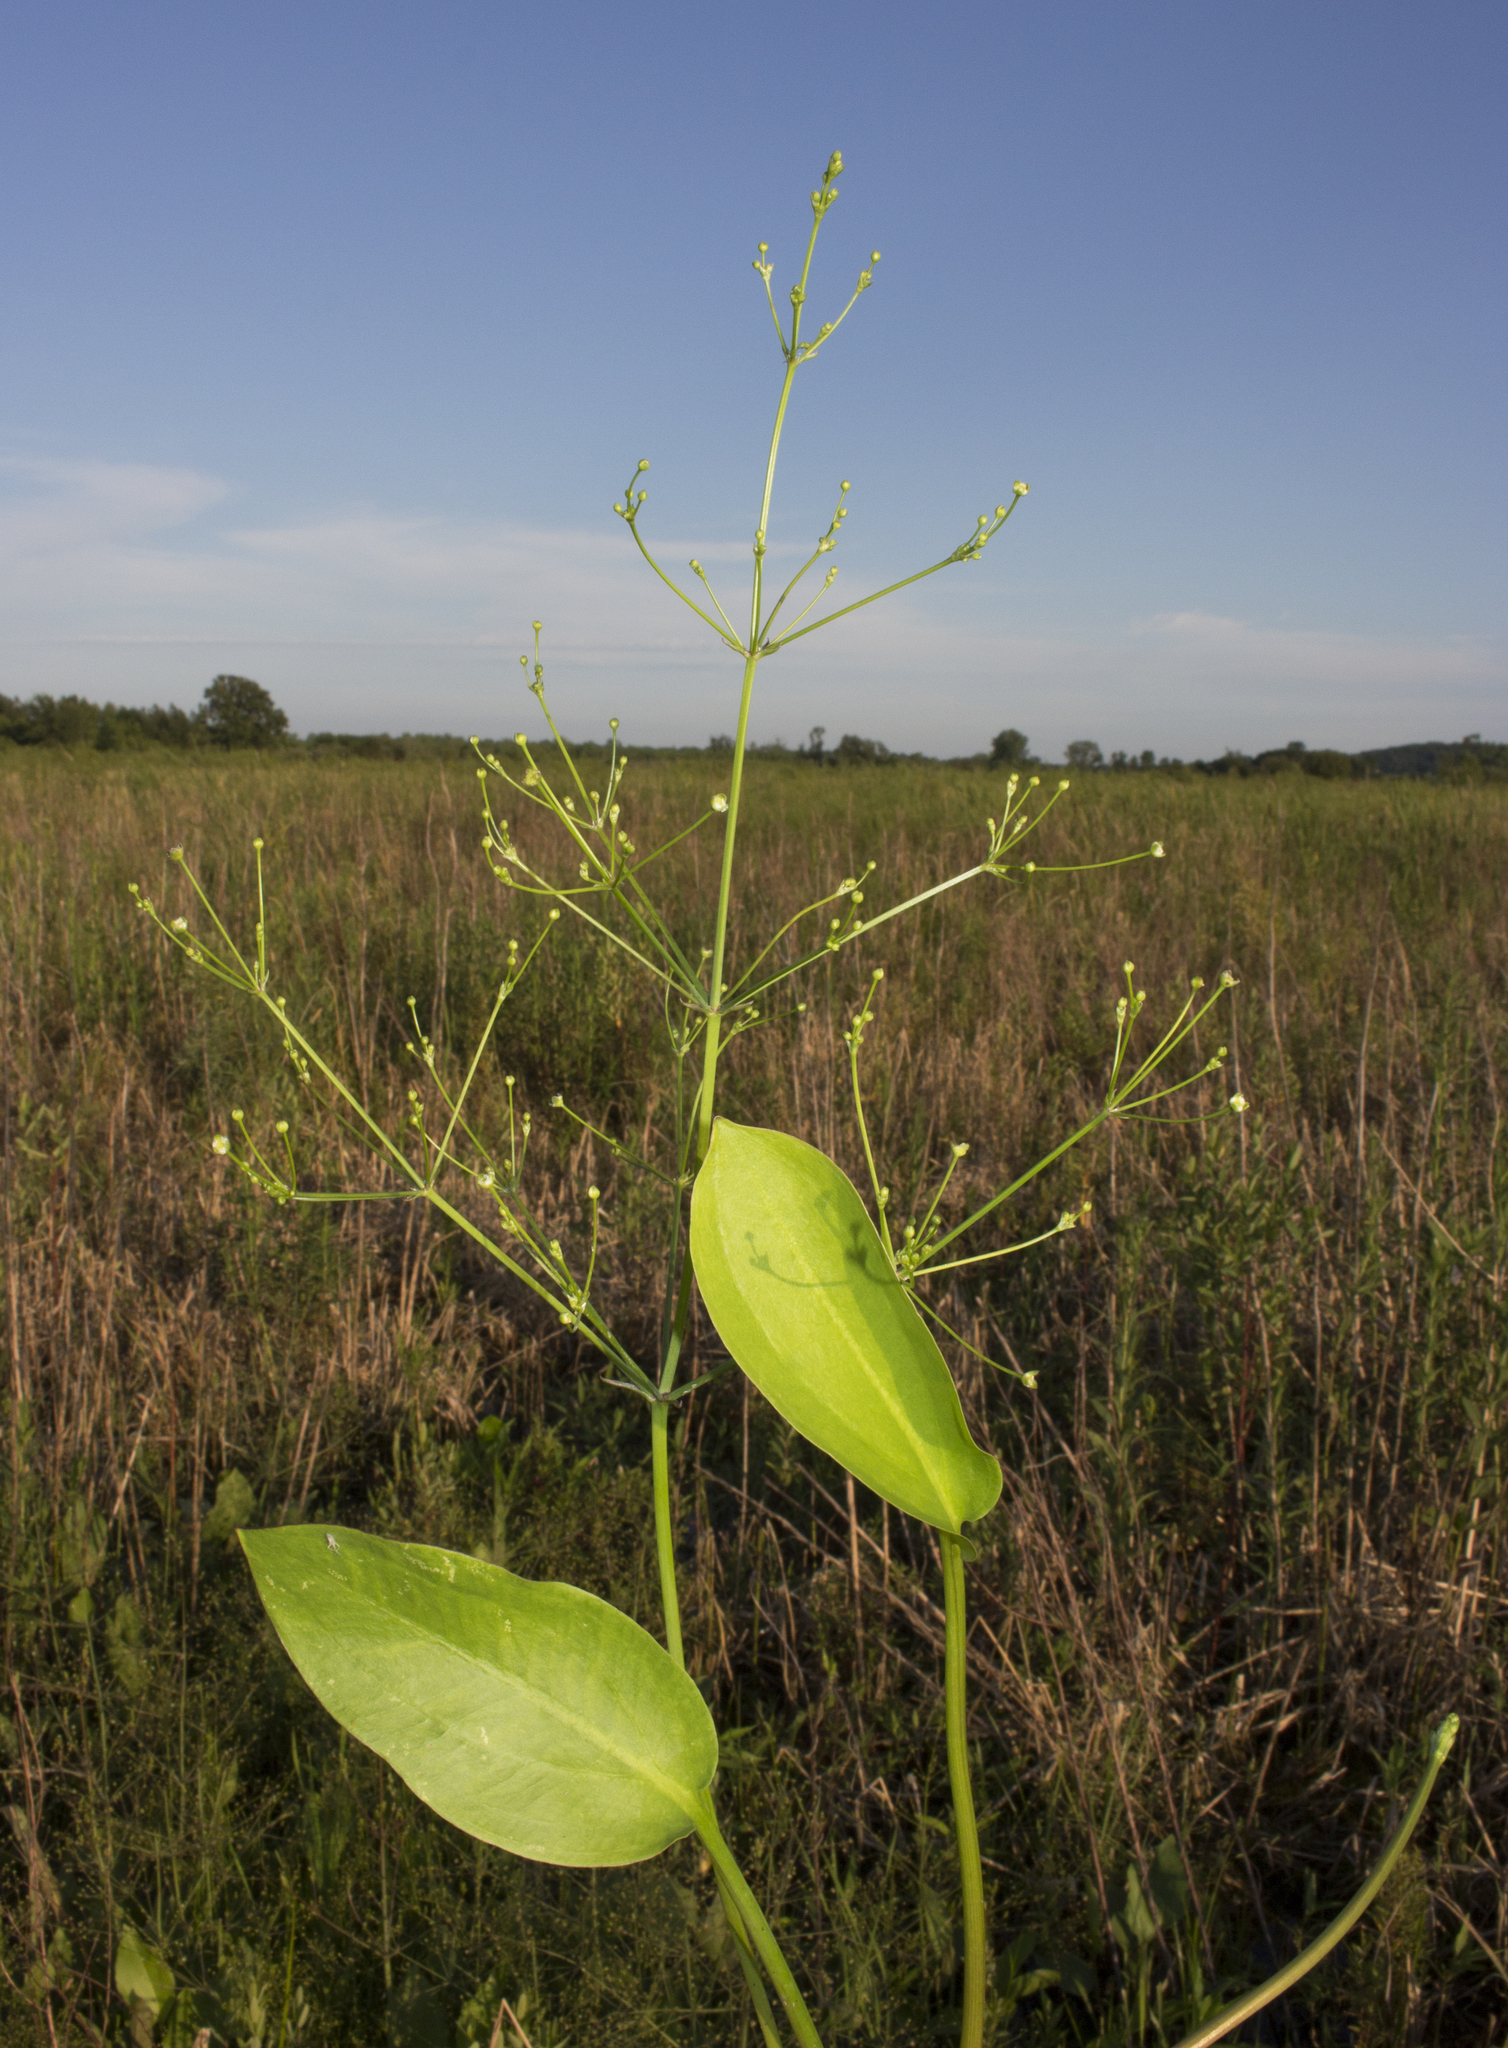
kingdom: Plantae
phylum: Tracheophyta
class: Liliopsida
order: Alismatales
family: Alismataceae
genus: Alisma
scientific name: Alisma subcordatum
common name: Southern water-plantain
